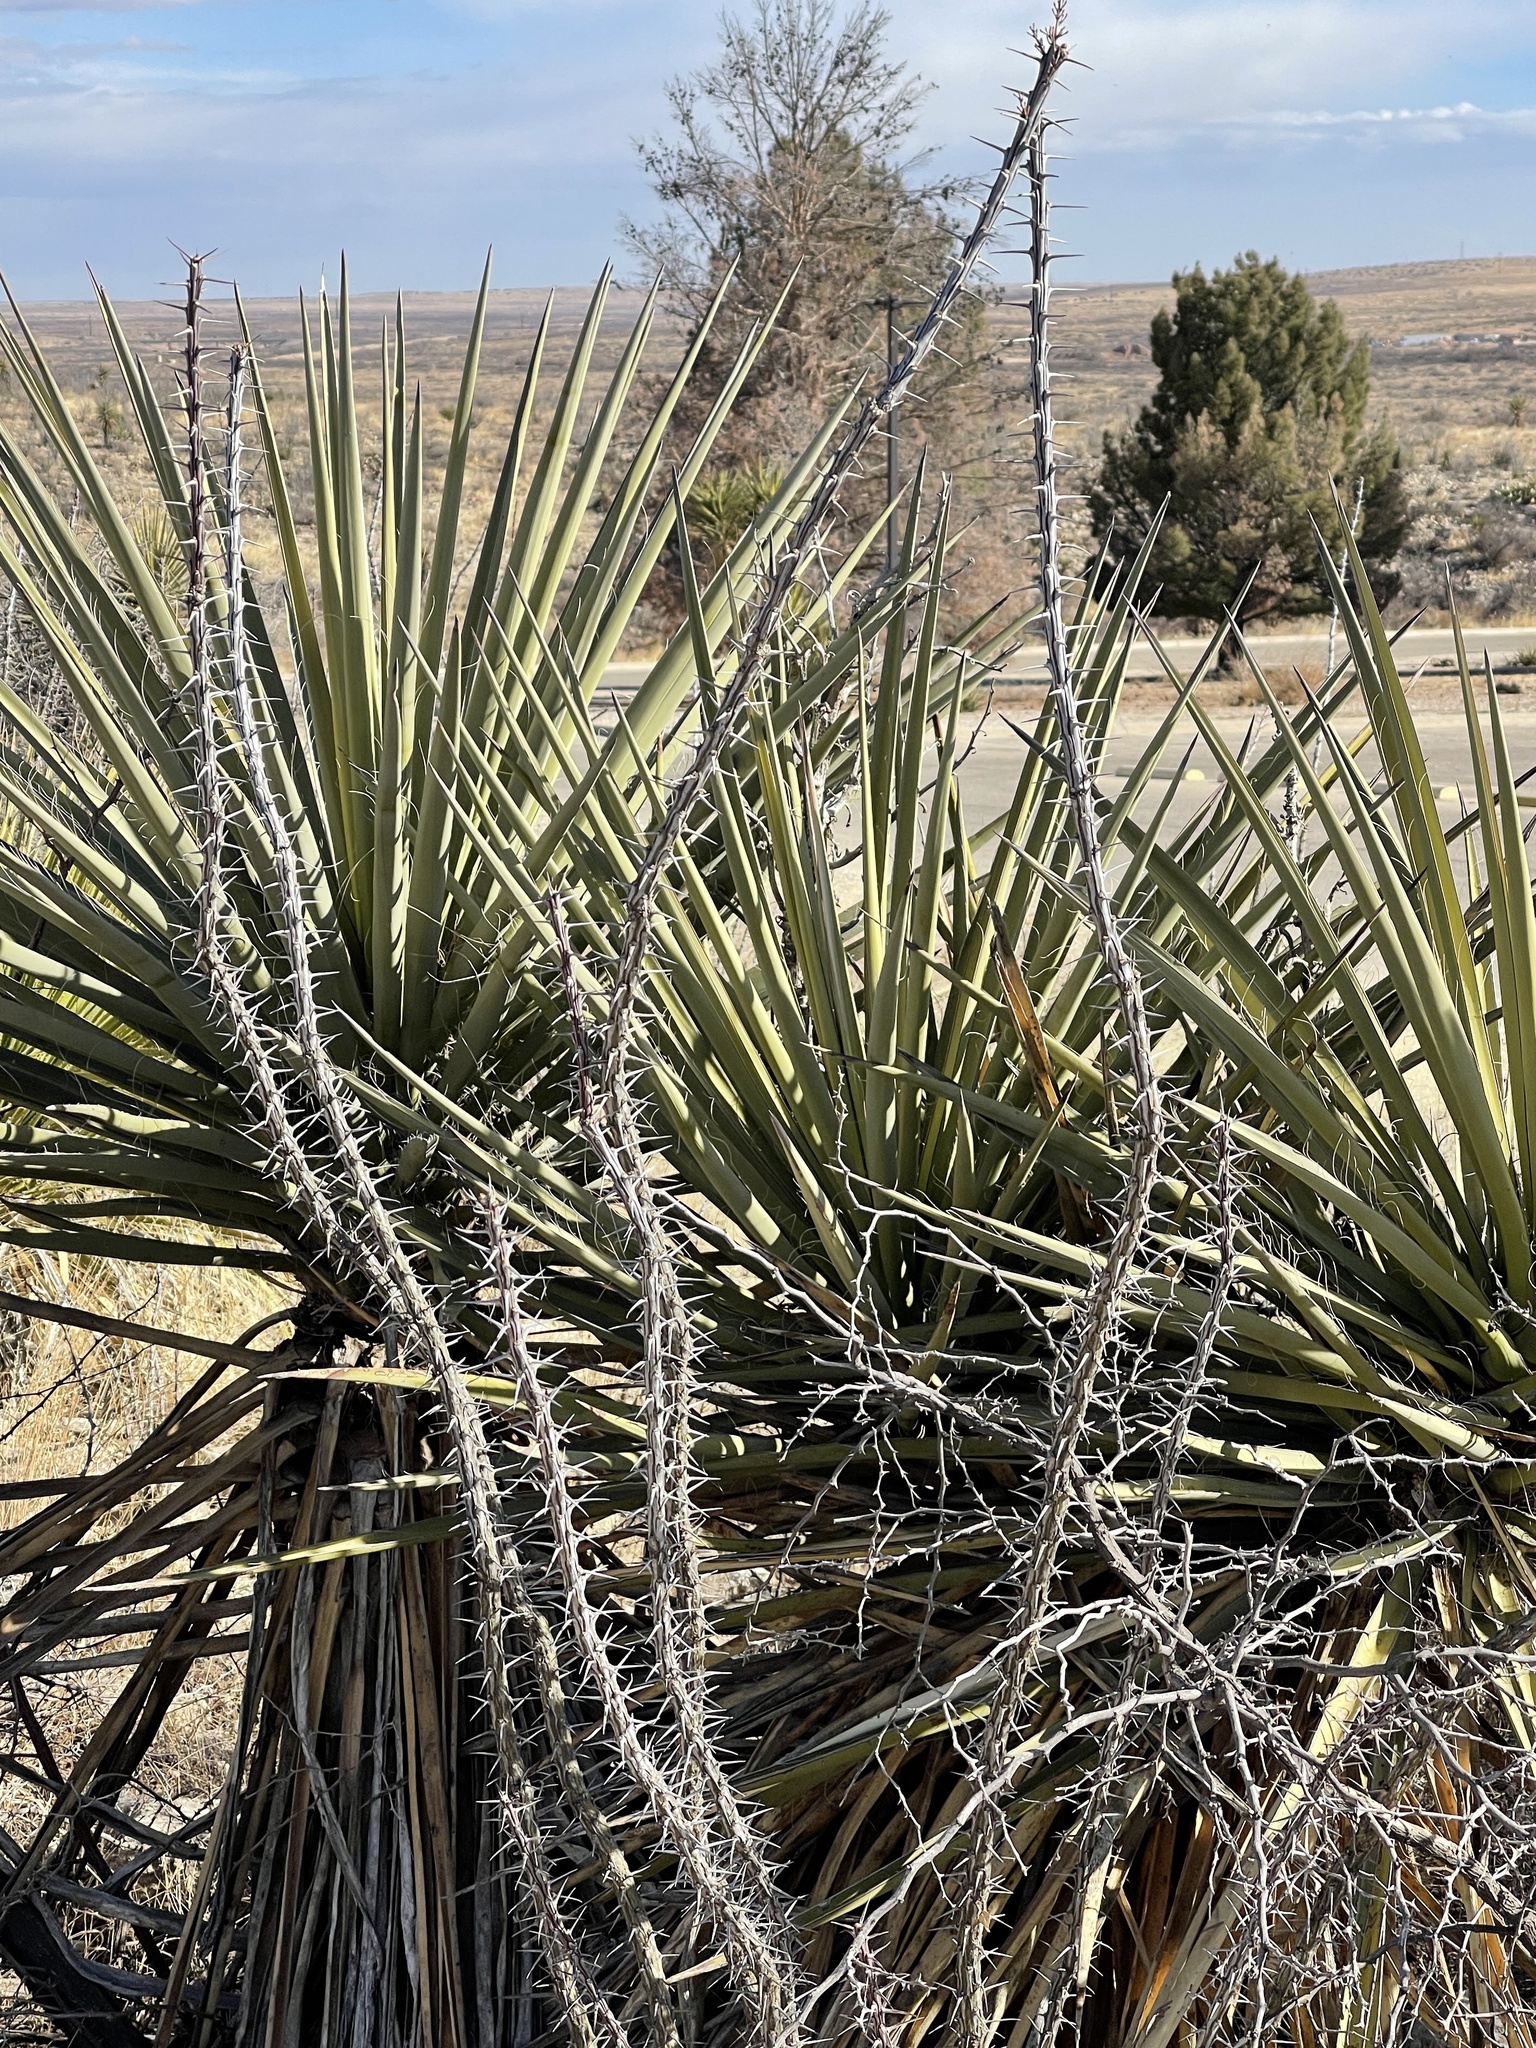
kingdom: Plantae
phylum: Tracheophyta
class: Magnoliopsida
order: Ericales
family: Fouquieriaceae
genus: Fouquieria
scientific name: Fouquieria splendens
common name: Vine-cactus
